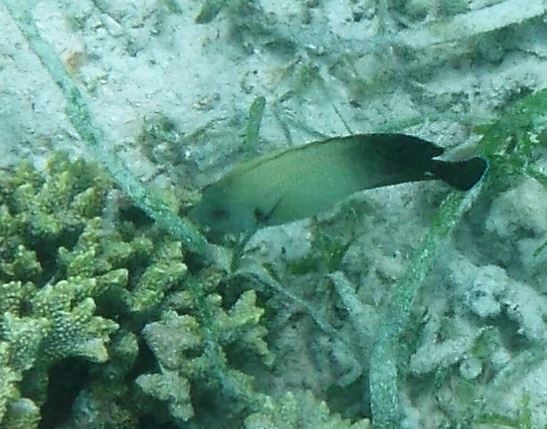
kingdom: Animalia
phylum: Chordata
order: Perciformes
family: Pomacanthidae
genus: Centropyge
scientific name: Centropyge vrolikii
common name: Pearlscale angelfish
